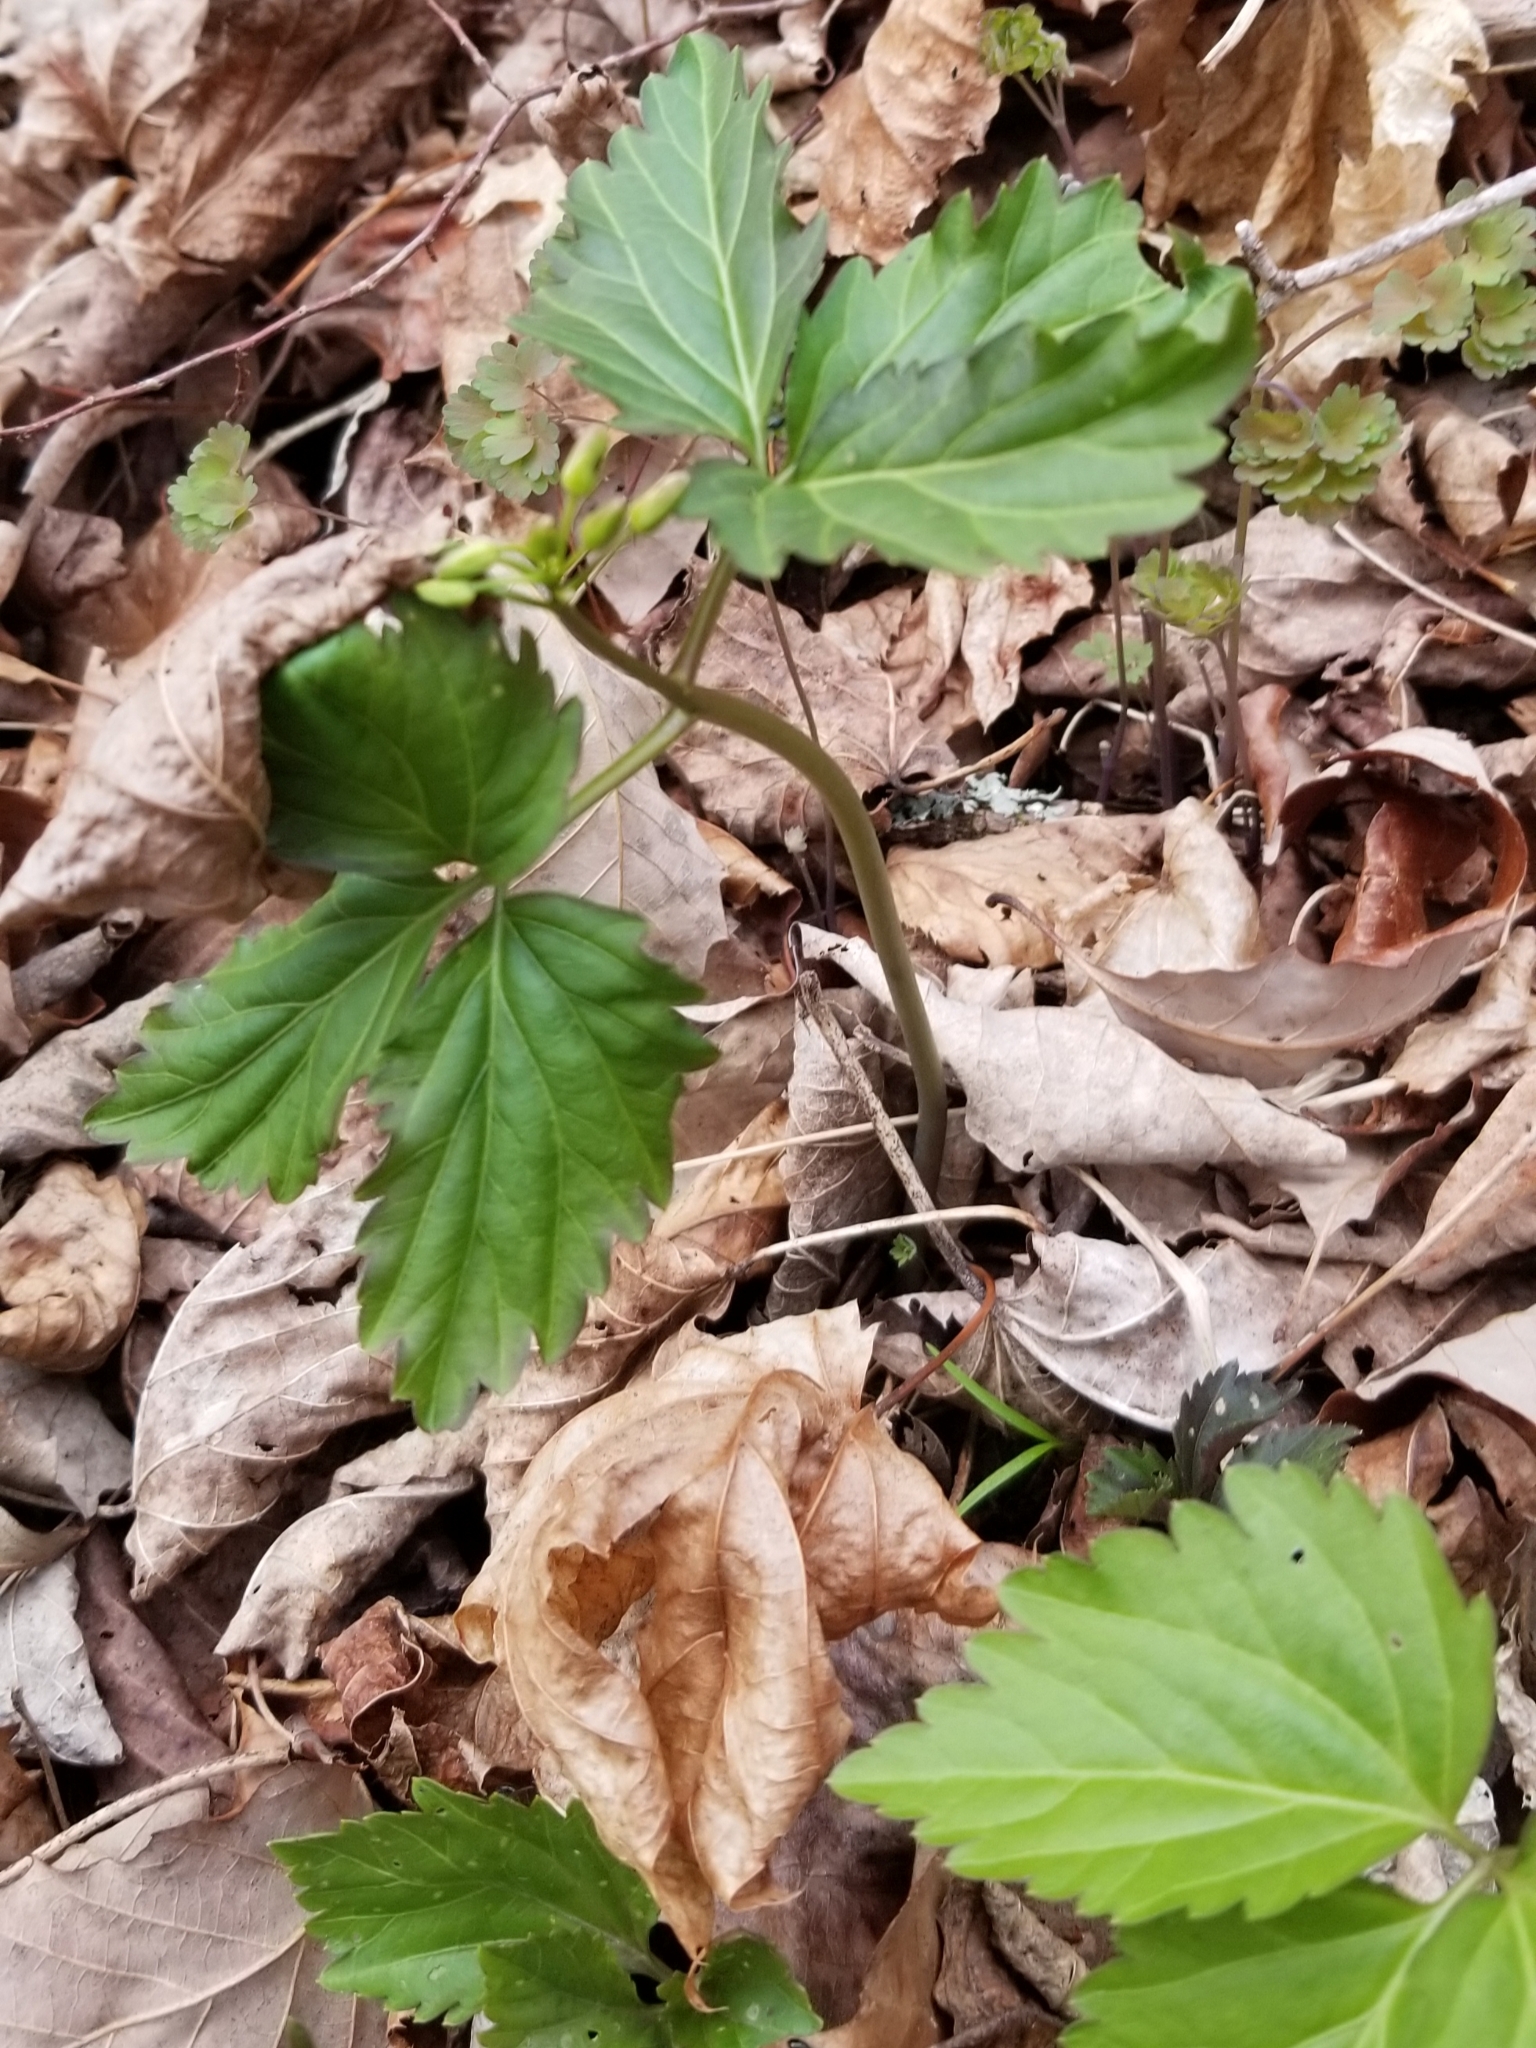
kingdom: Plantae
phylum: Tracheophyta
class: Magnoliopsida
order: Brassicales
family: Brassicaceae
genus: Cardamine
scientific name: Cardamine diphylla
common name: Broad-leaved toothwort
